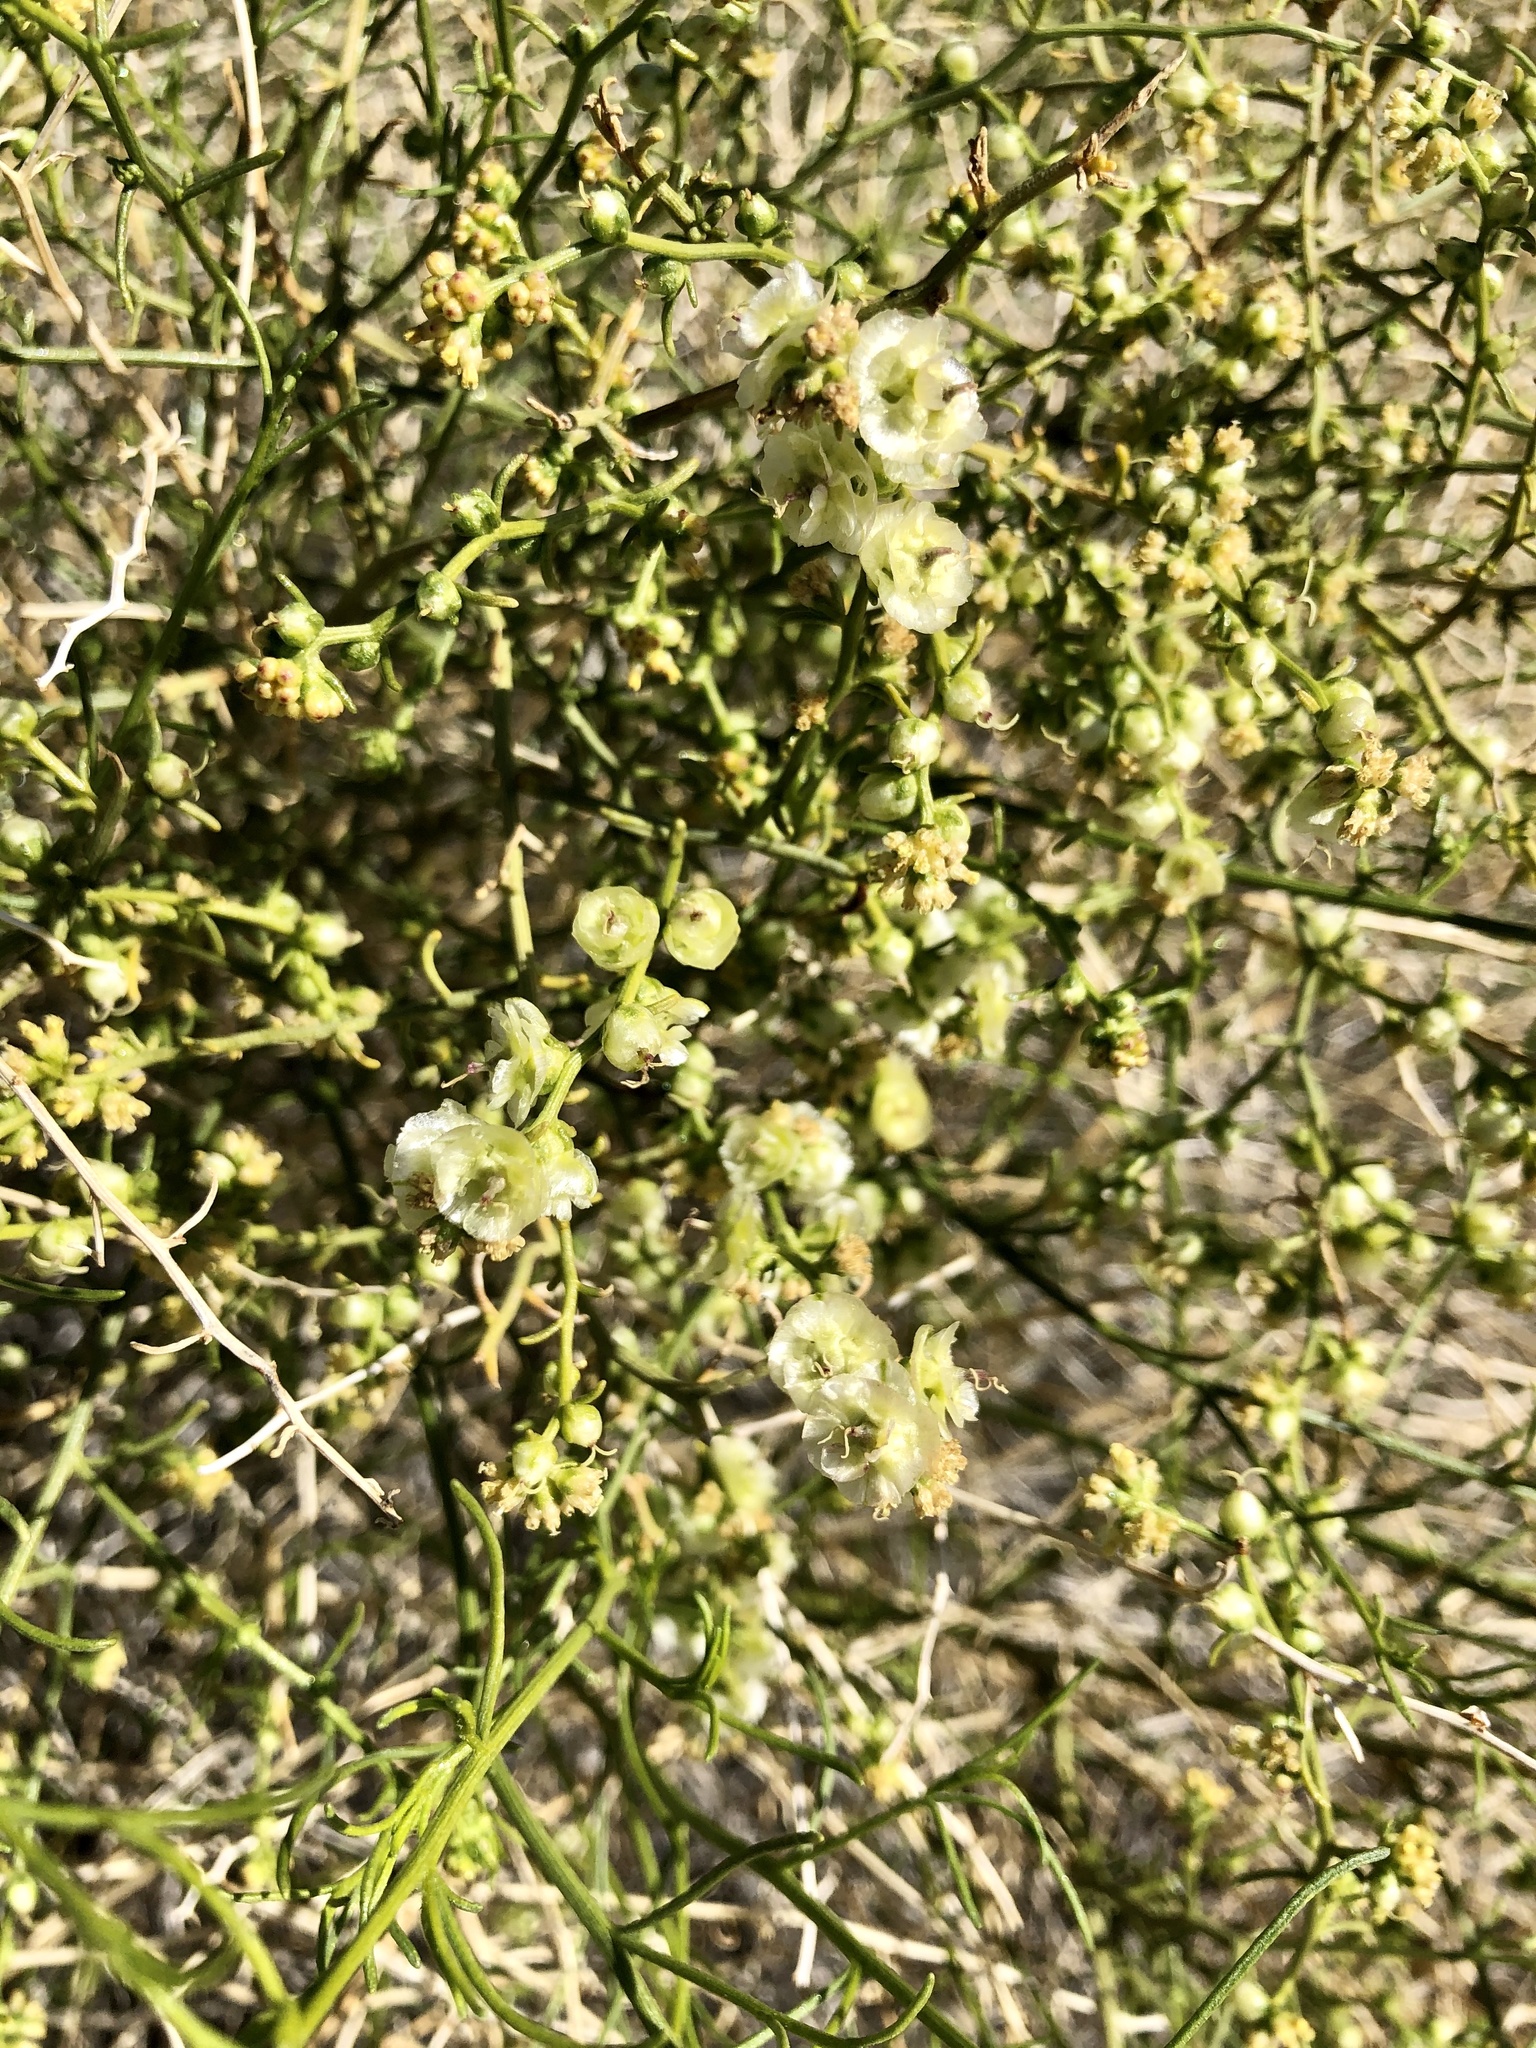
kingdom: Plantae
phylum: Tracheophyta
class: Magnoliopsida
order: Asterales
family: Asteraceae
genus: Ambrosia
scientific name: Ambrosia salsola
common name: Burrobrush
